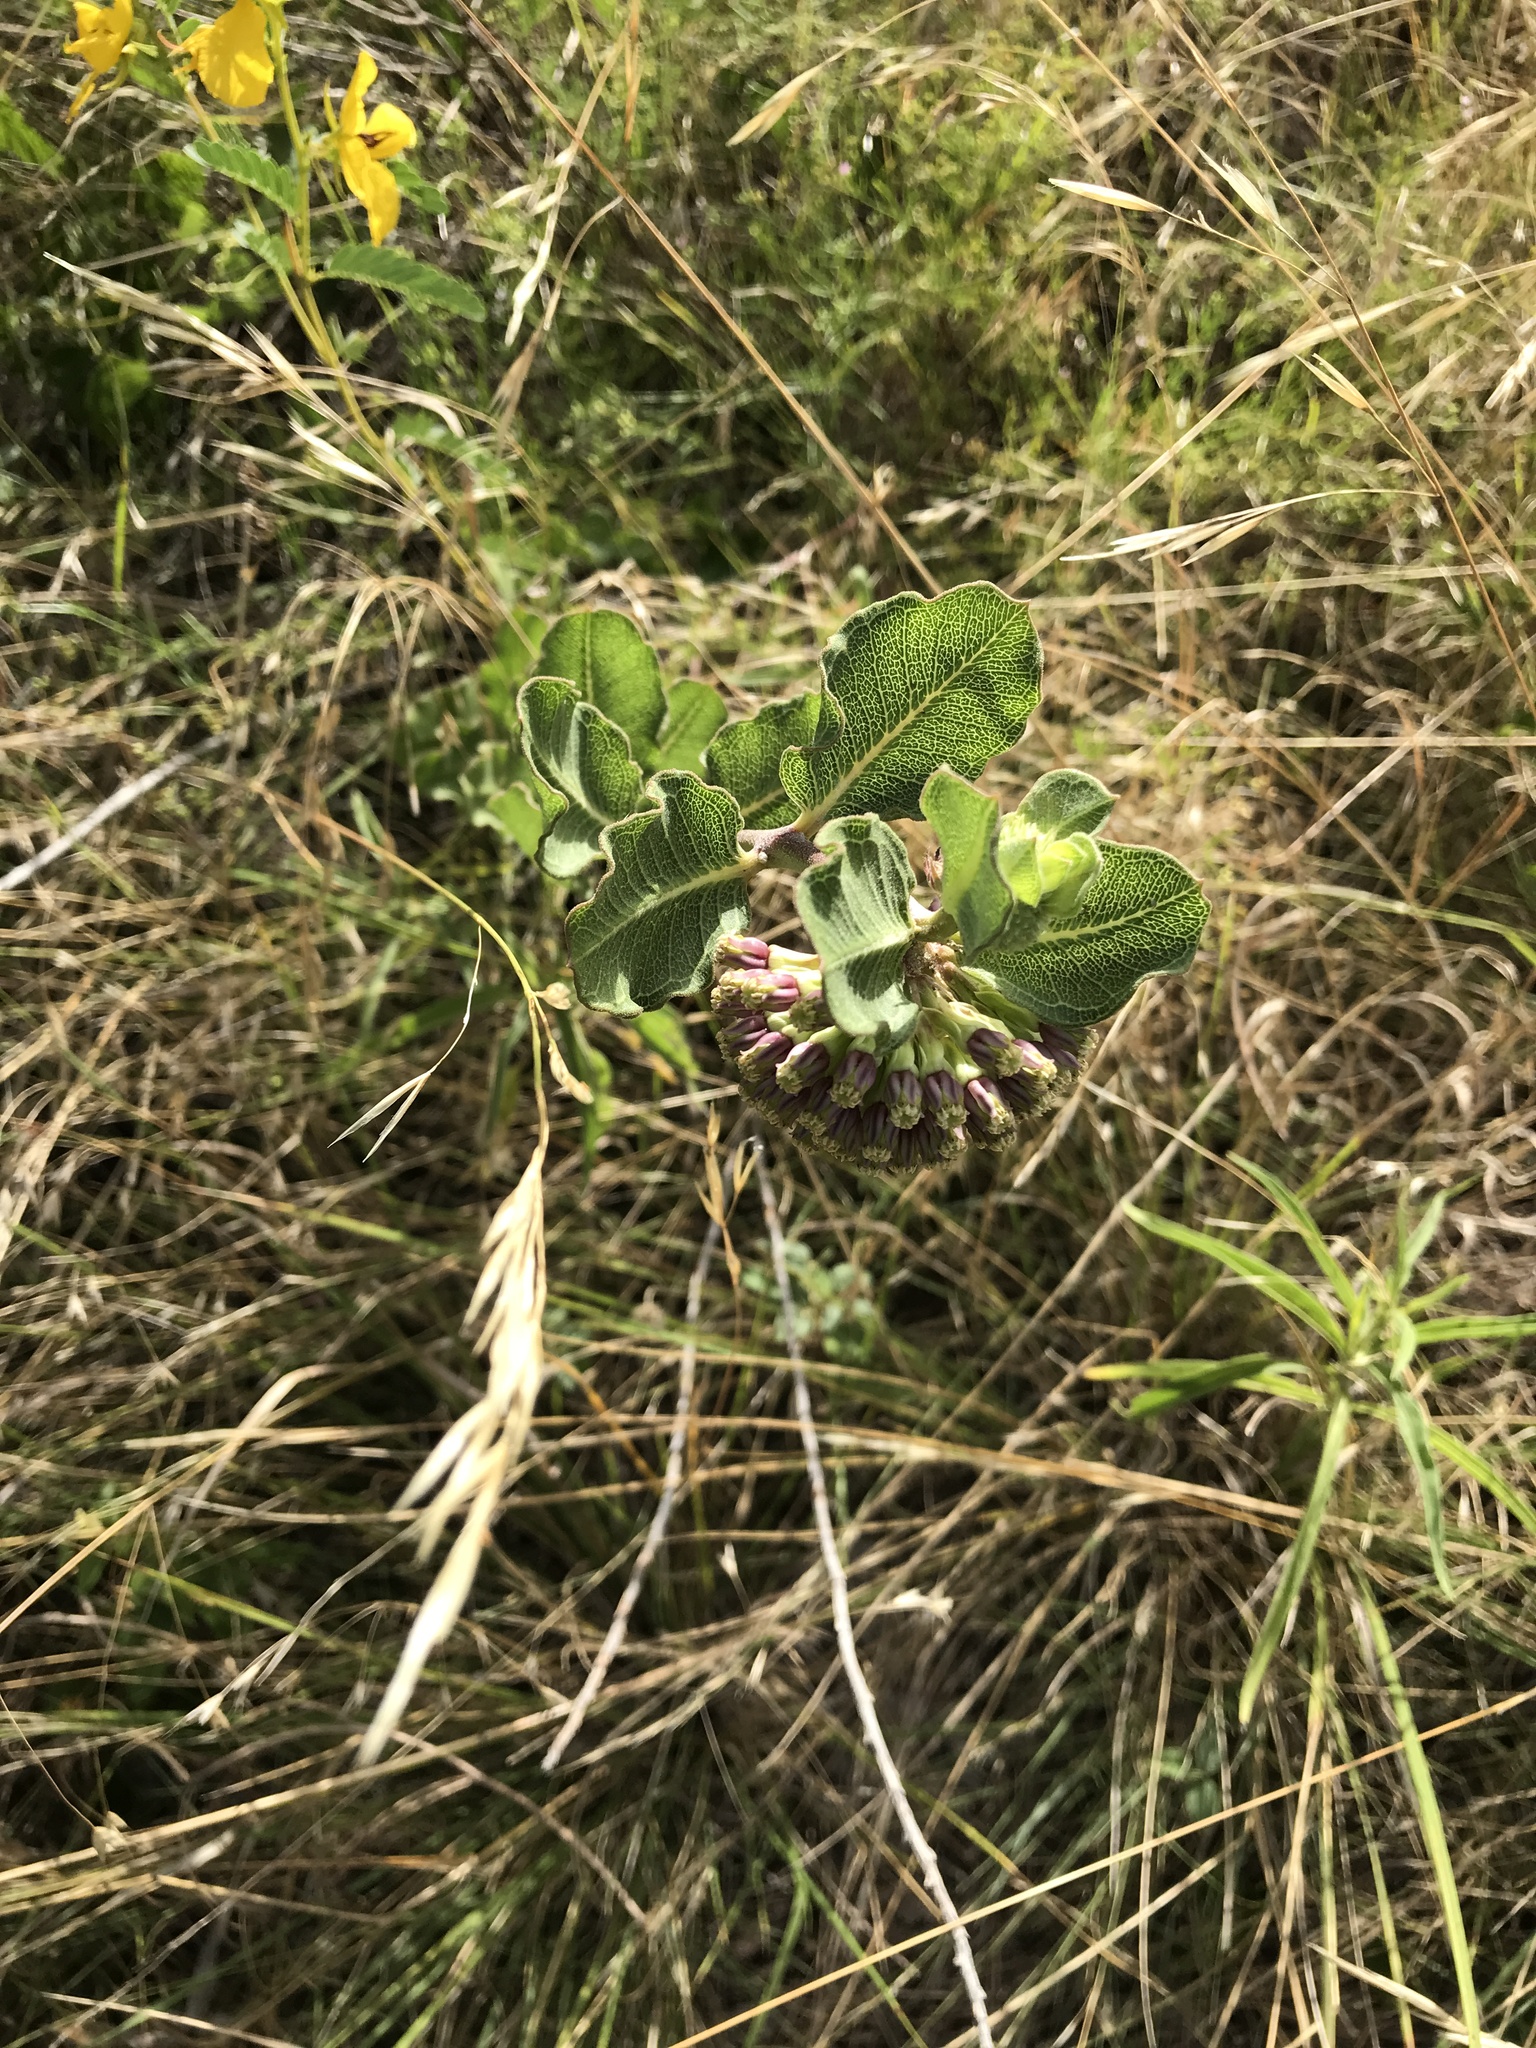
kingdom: Plantae
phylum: Tracheophyta
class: Magnoliopsida
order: Gentianales
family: Apocynaceae
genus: Asclepias
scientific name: Asclepias viridiflora
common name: Green comet milkweed
